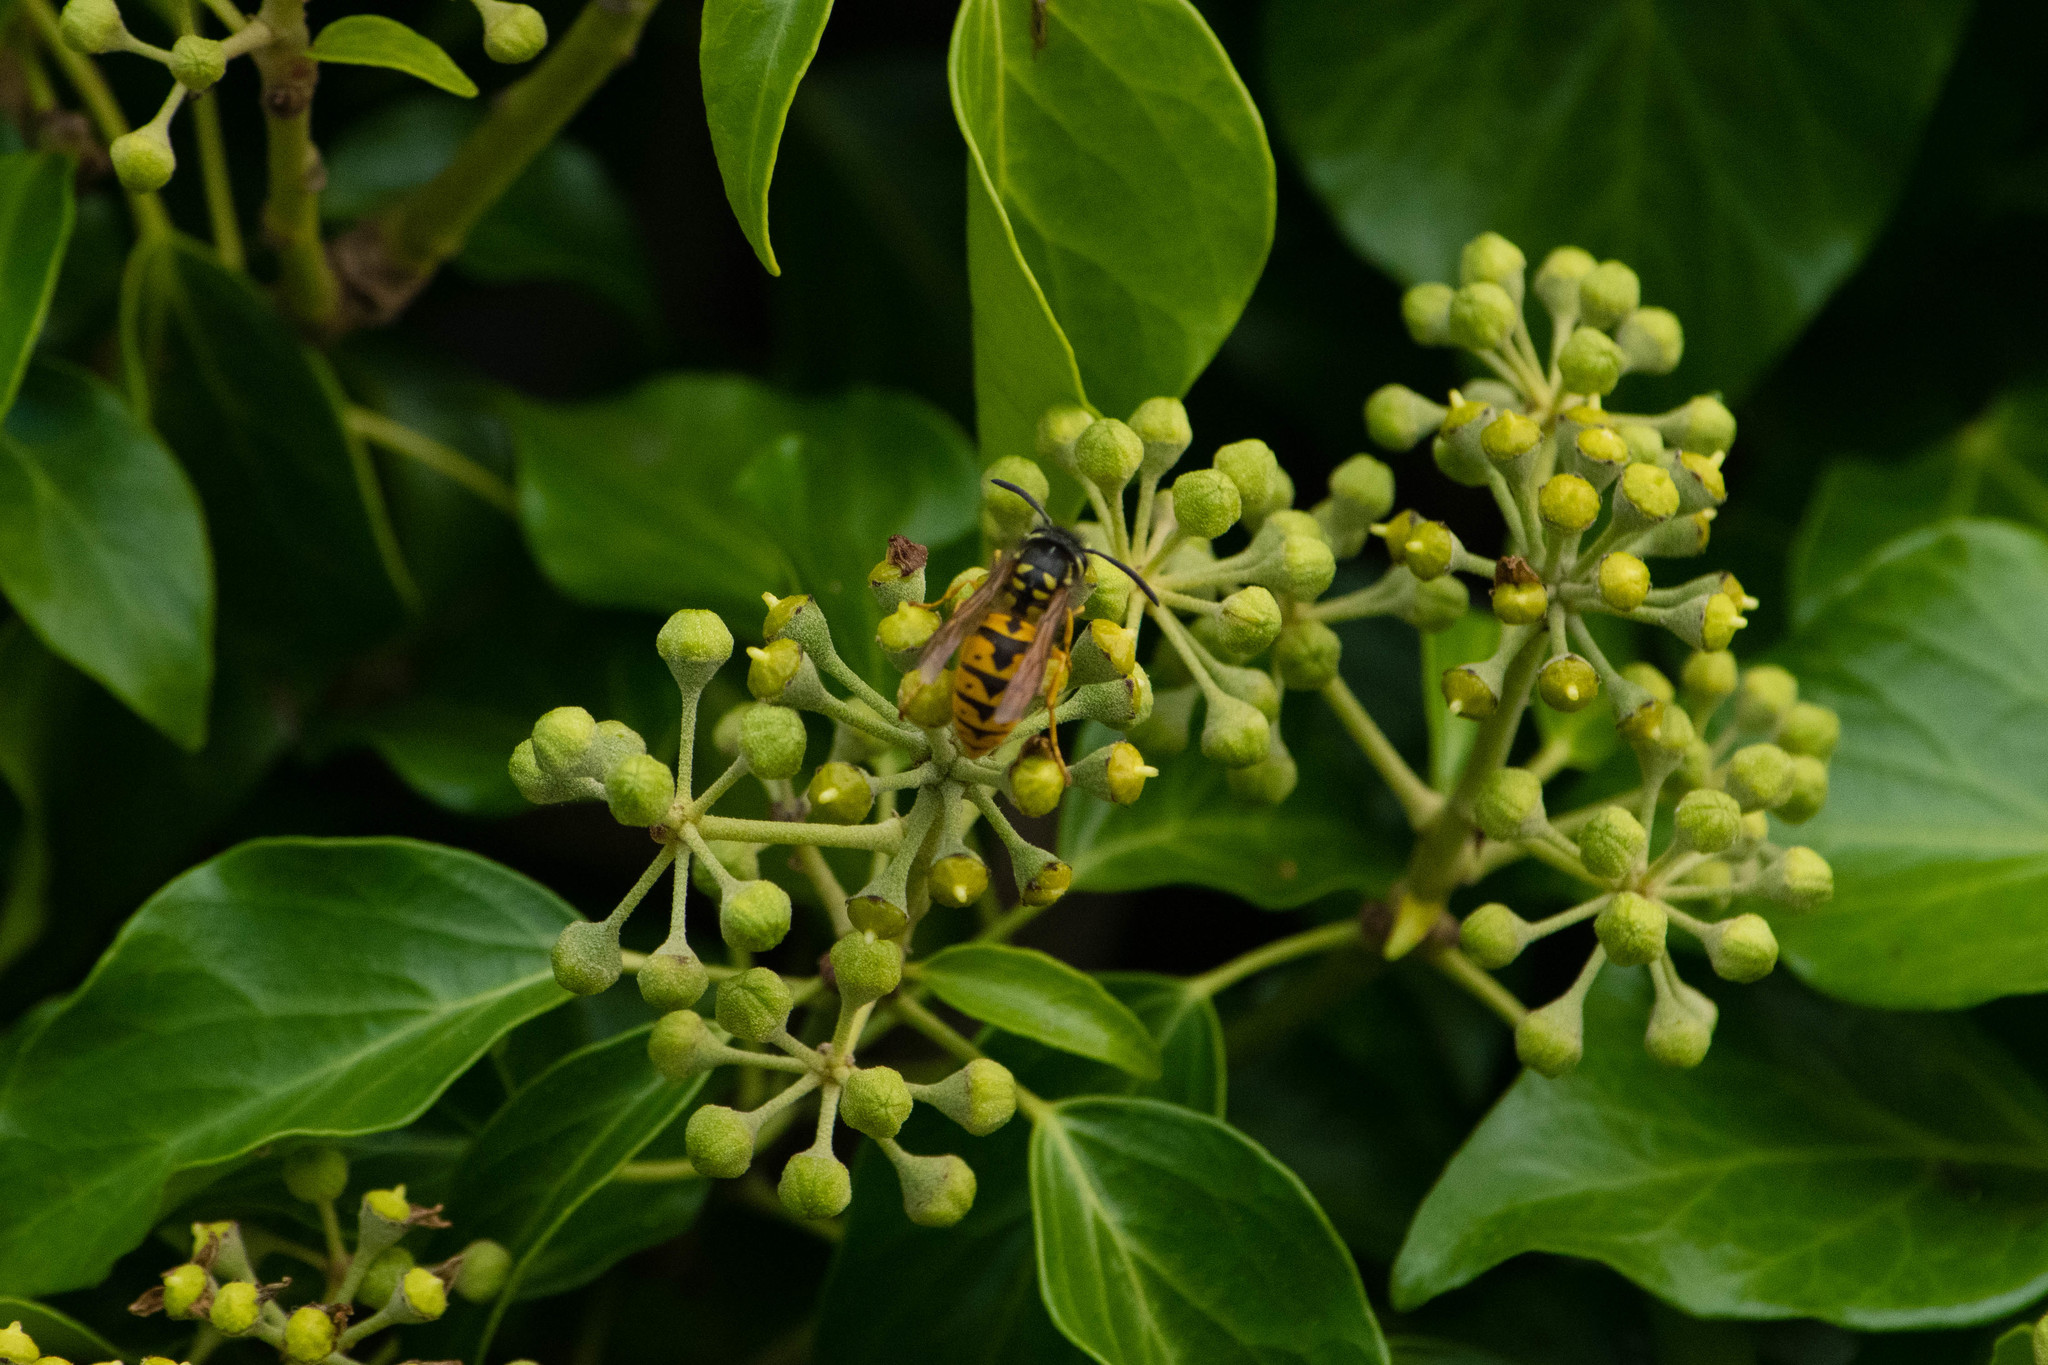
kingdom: Animalia
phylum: Arthropoda
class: Insecta
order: Hymenoptera
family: Vespidae
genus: Vespula
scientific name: Vespula germanica
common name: German wasp
